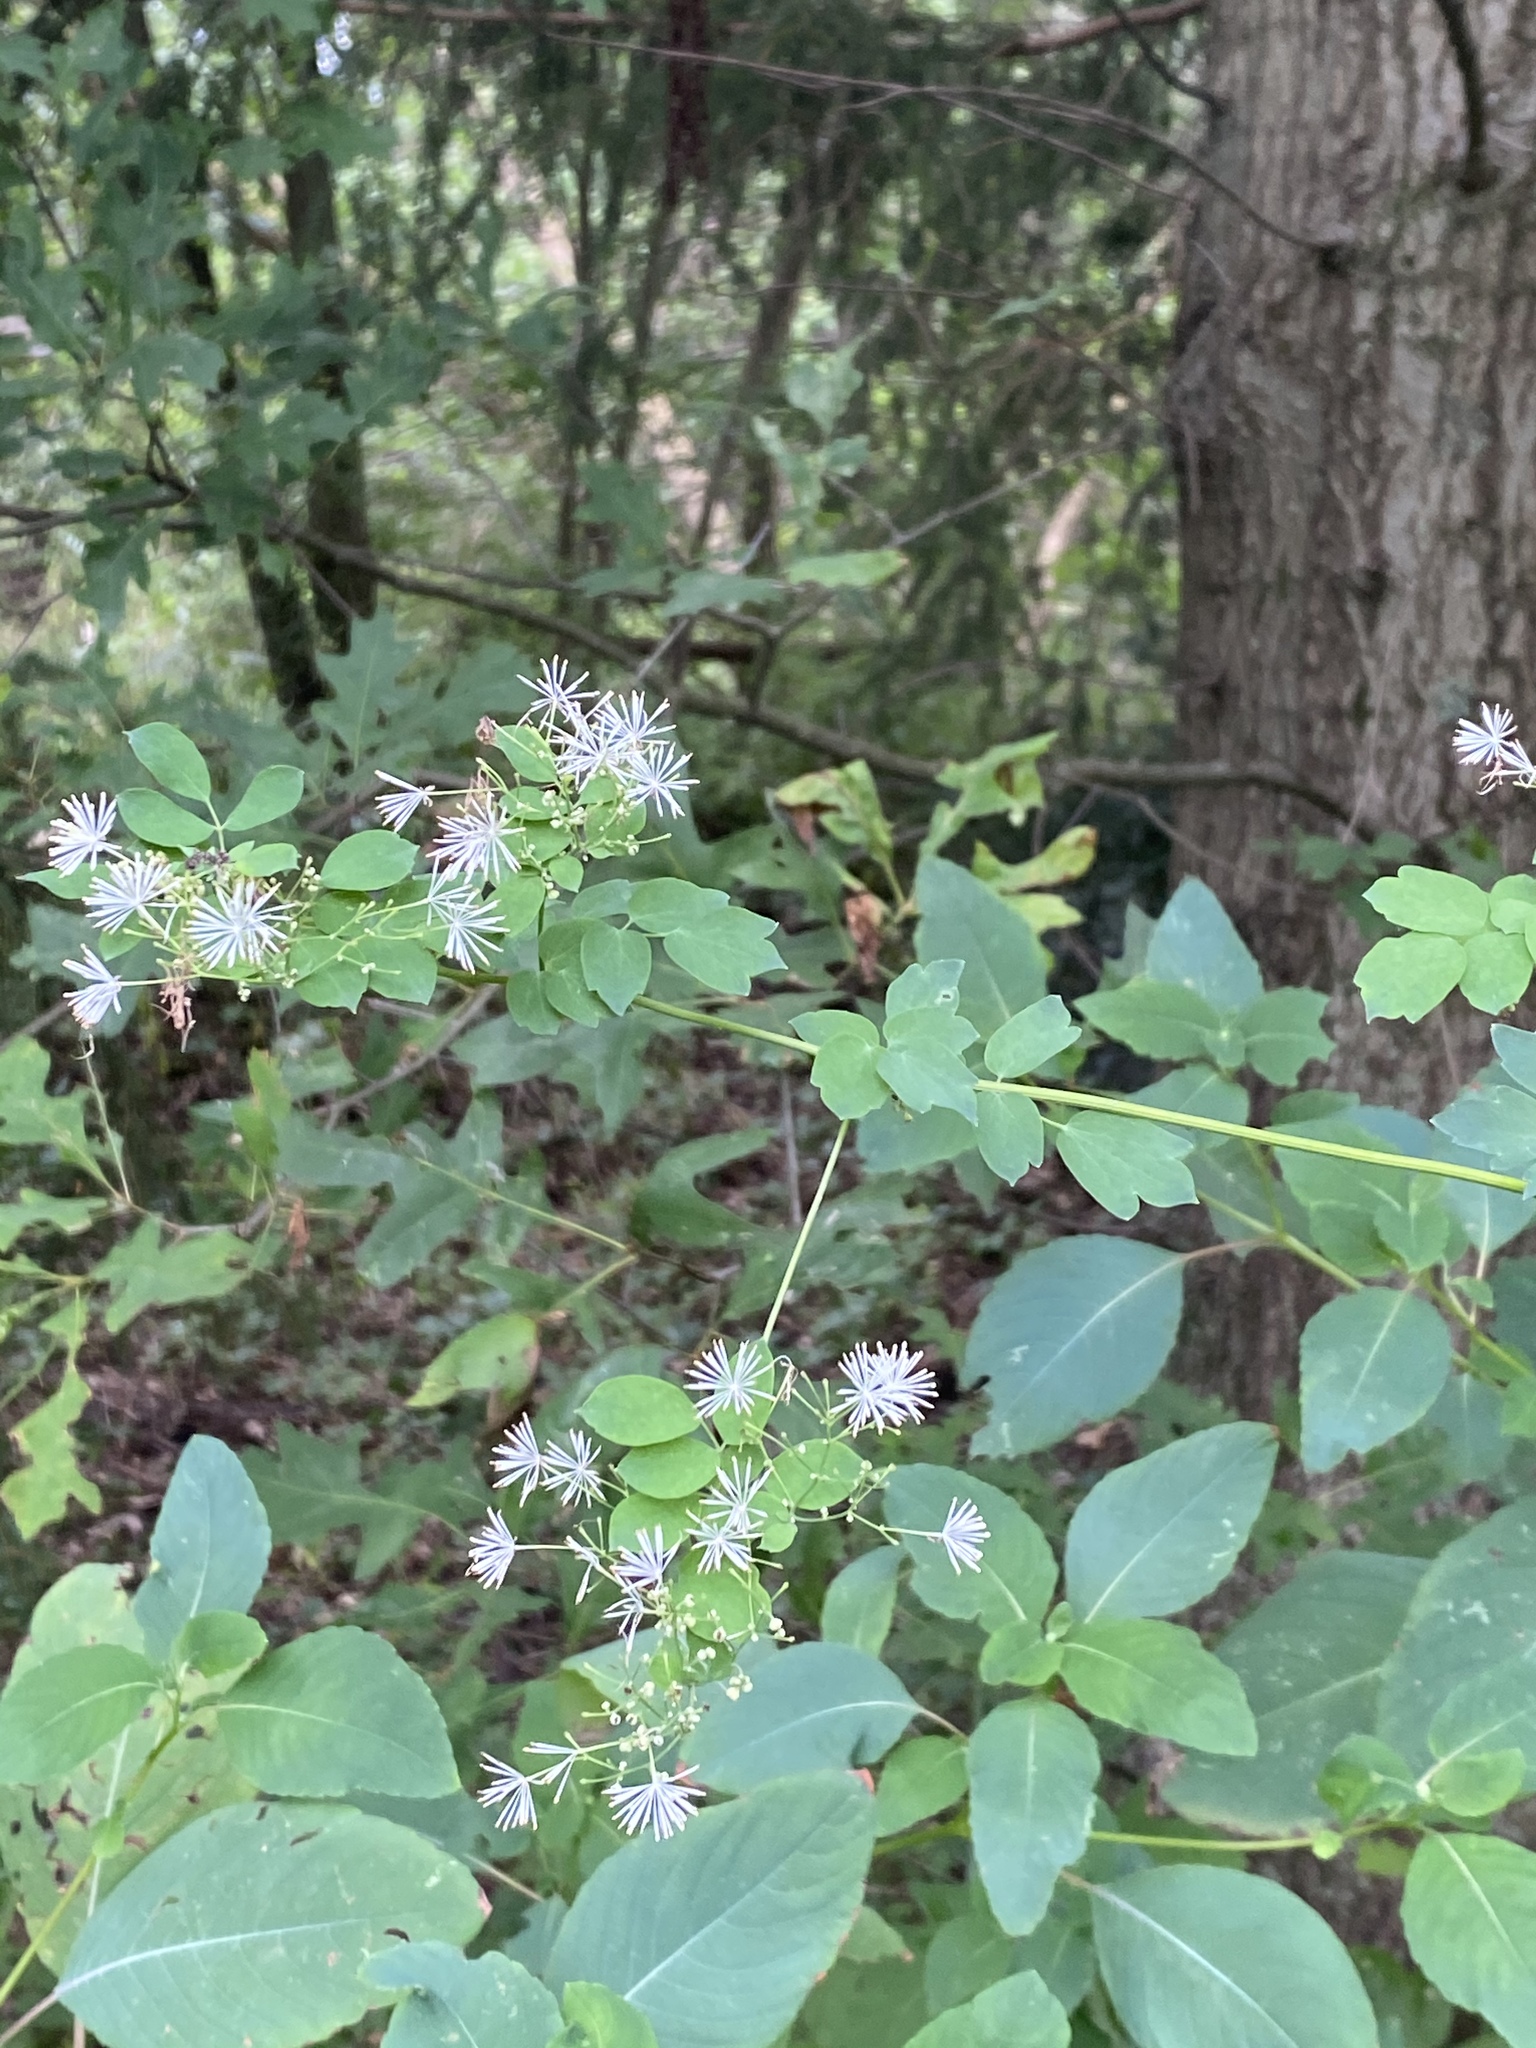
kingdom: Plantae
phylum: Tracheophyta
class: Magnoliopsida
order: Ranunculales
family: Ranunculaceae
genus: Thalictrum
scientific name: Thalictrum pubescens
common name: King-of-the-meadow
